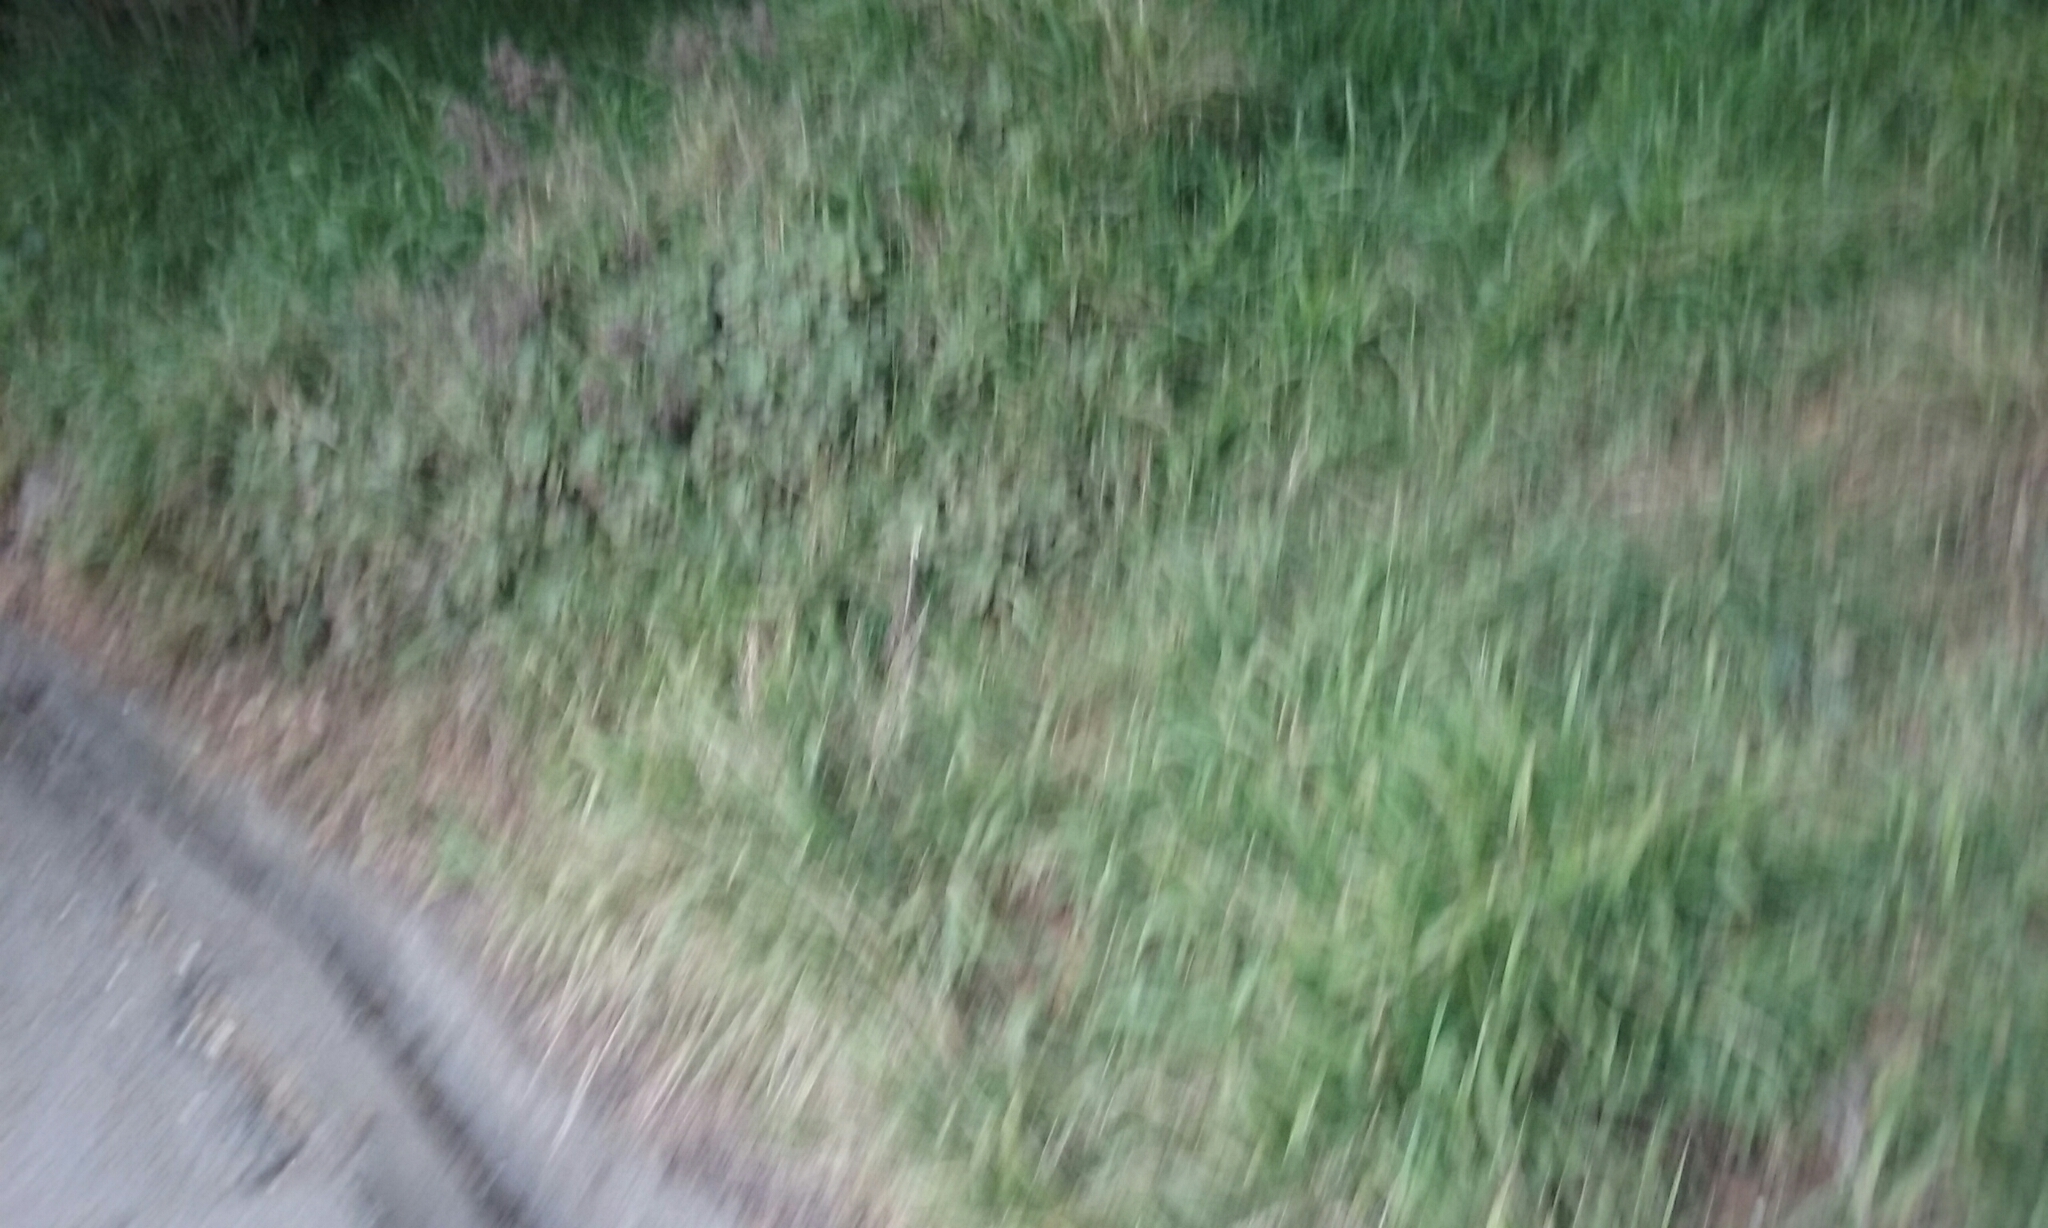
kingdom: Plantae
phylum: Tracheophyta
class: Liliopsida
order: Poales
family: Poaceae
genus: Ehrharta
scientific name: Ehrharta erecta
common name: Panic veldtgrass
